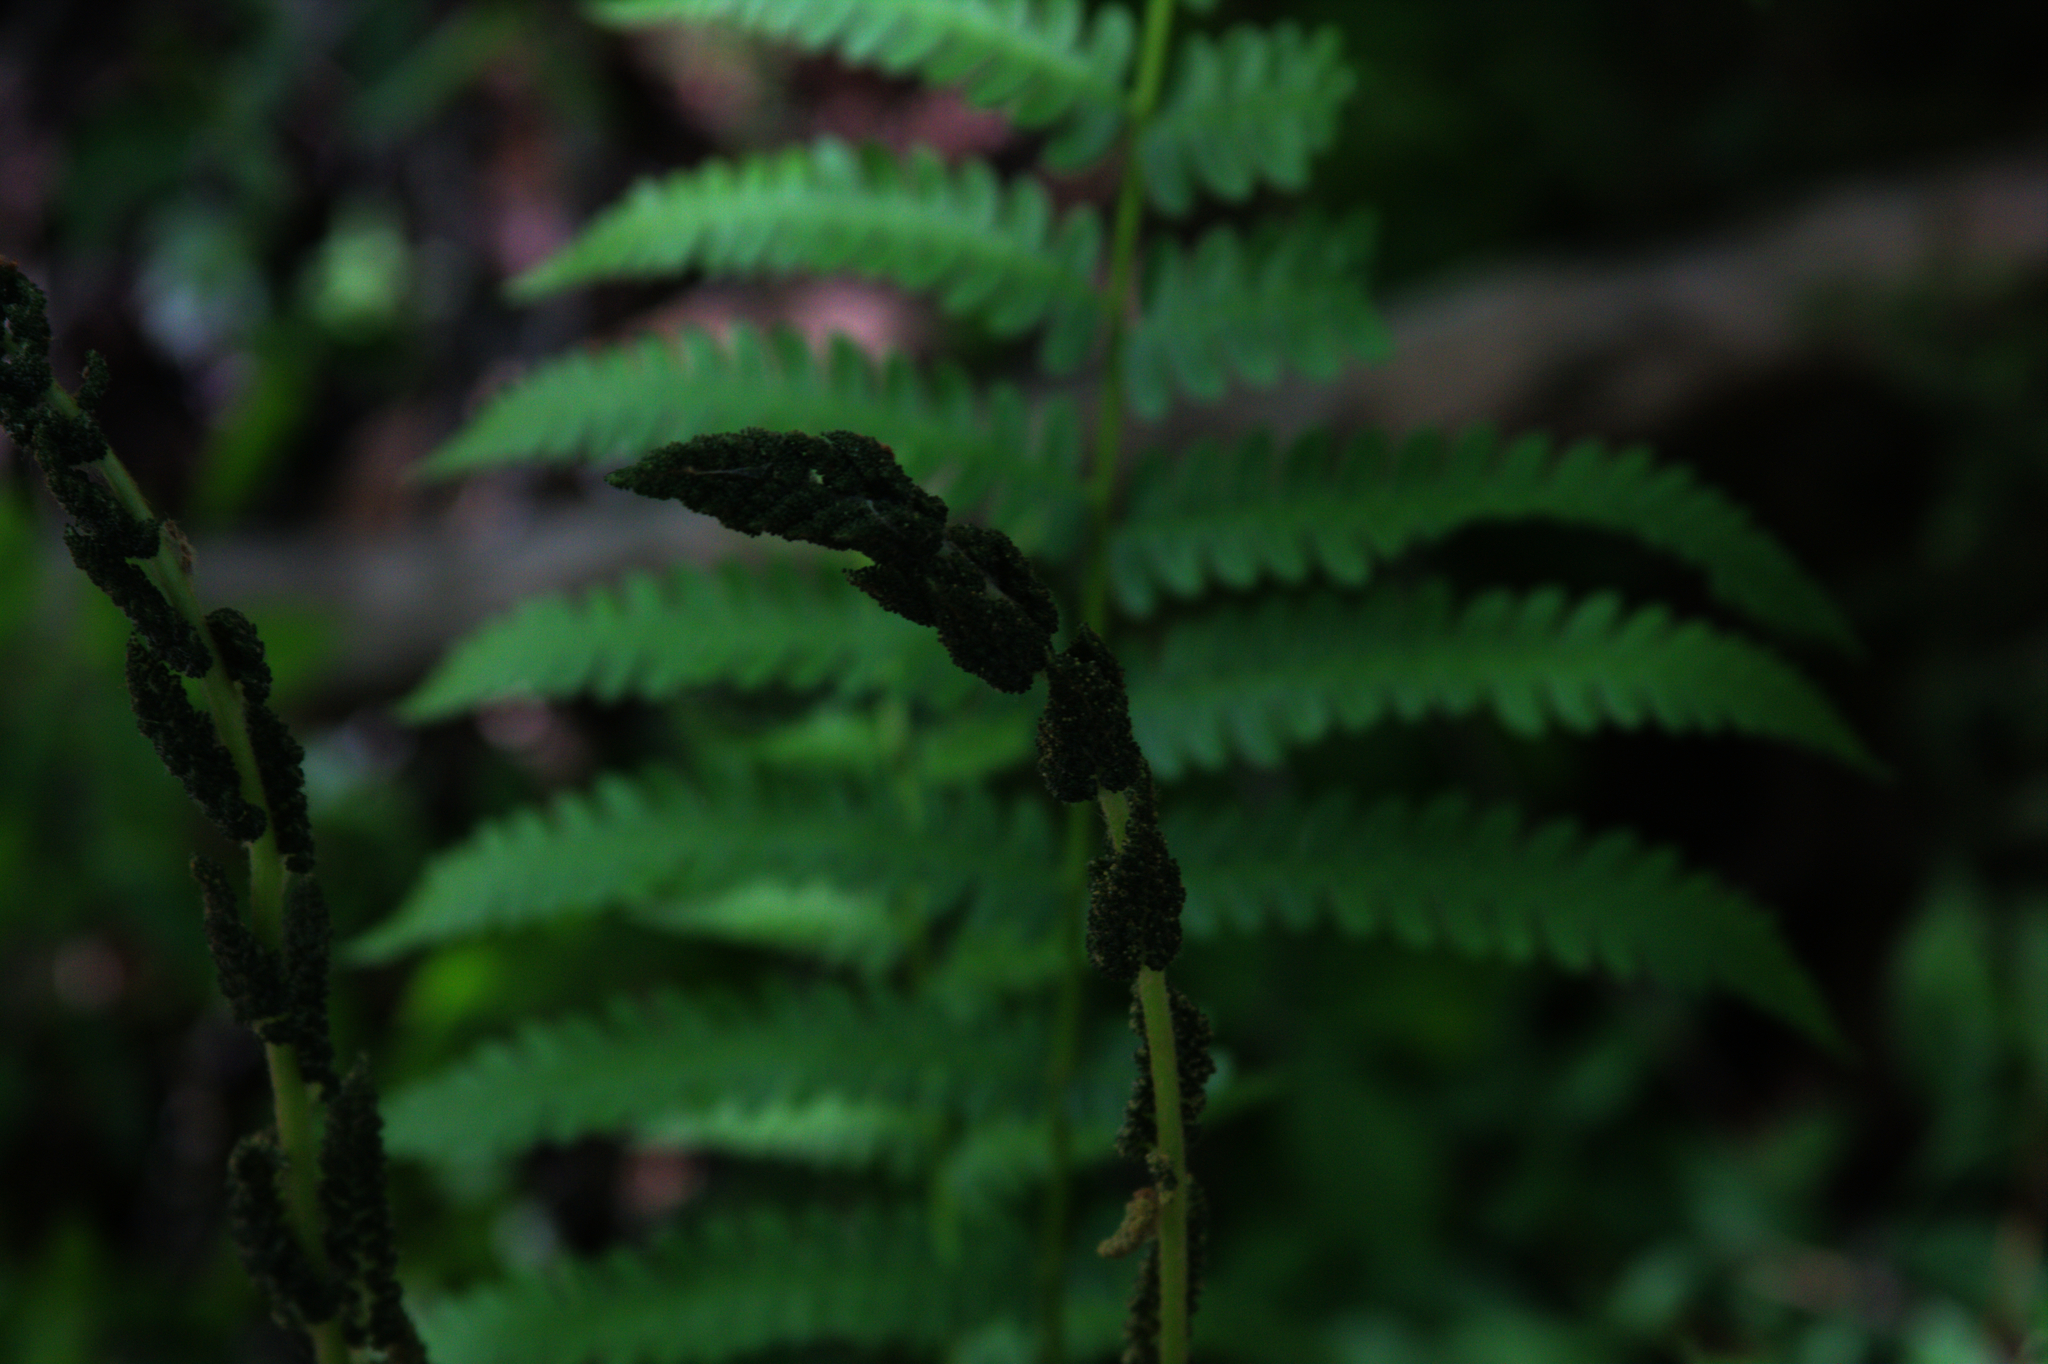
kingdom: Plantae
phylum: Tracheophyta
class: Polypodiopsida
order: Osmundales
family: Osmundaceae
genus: Osmundastrum
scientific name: Osmundastrum cinnamomeum
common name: Cinnamon fern
